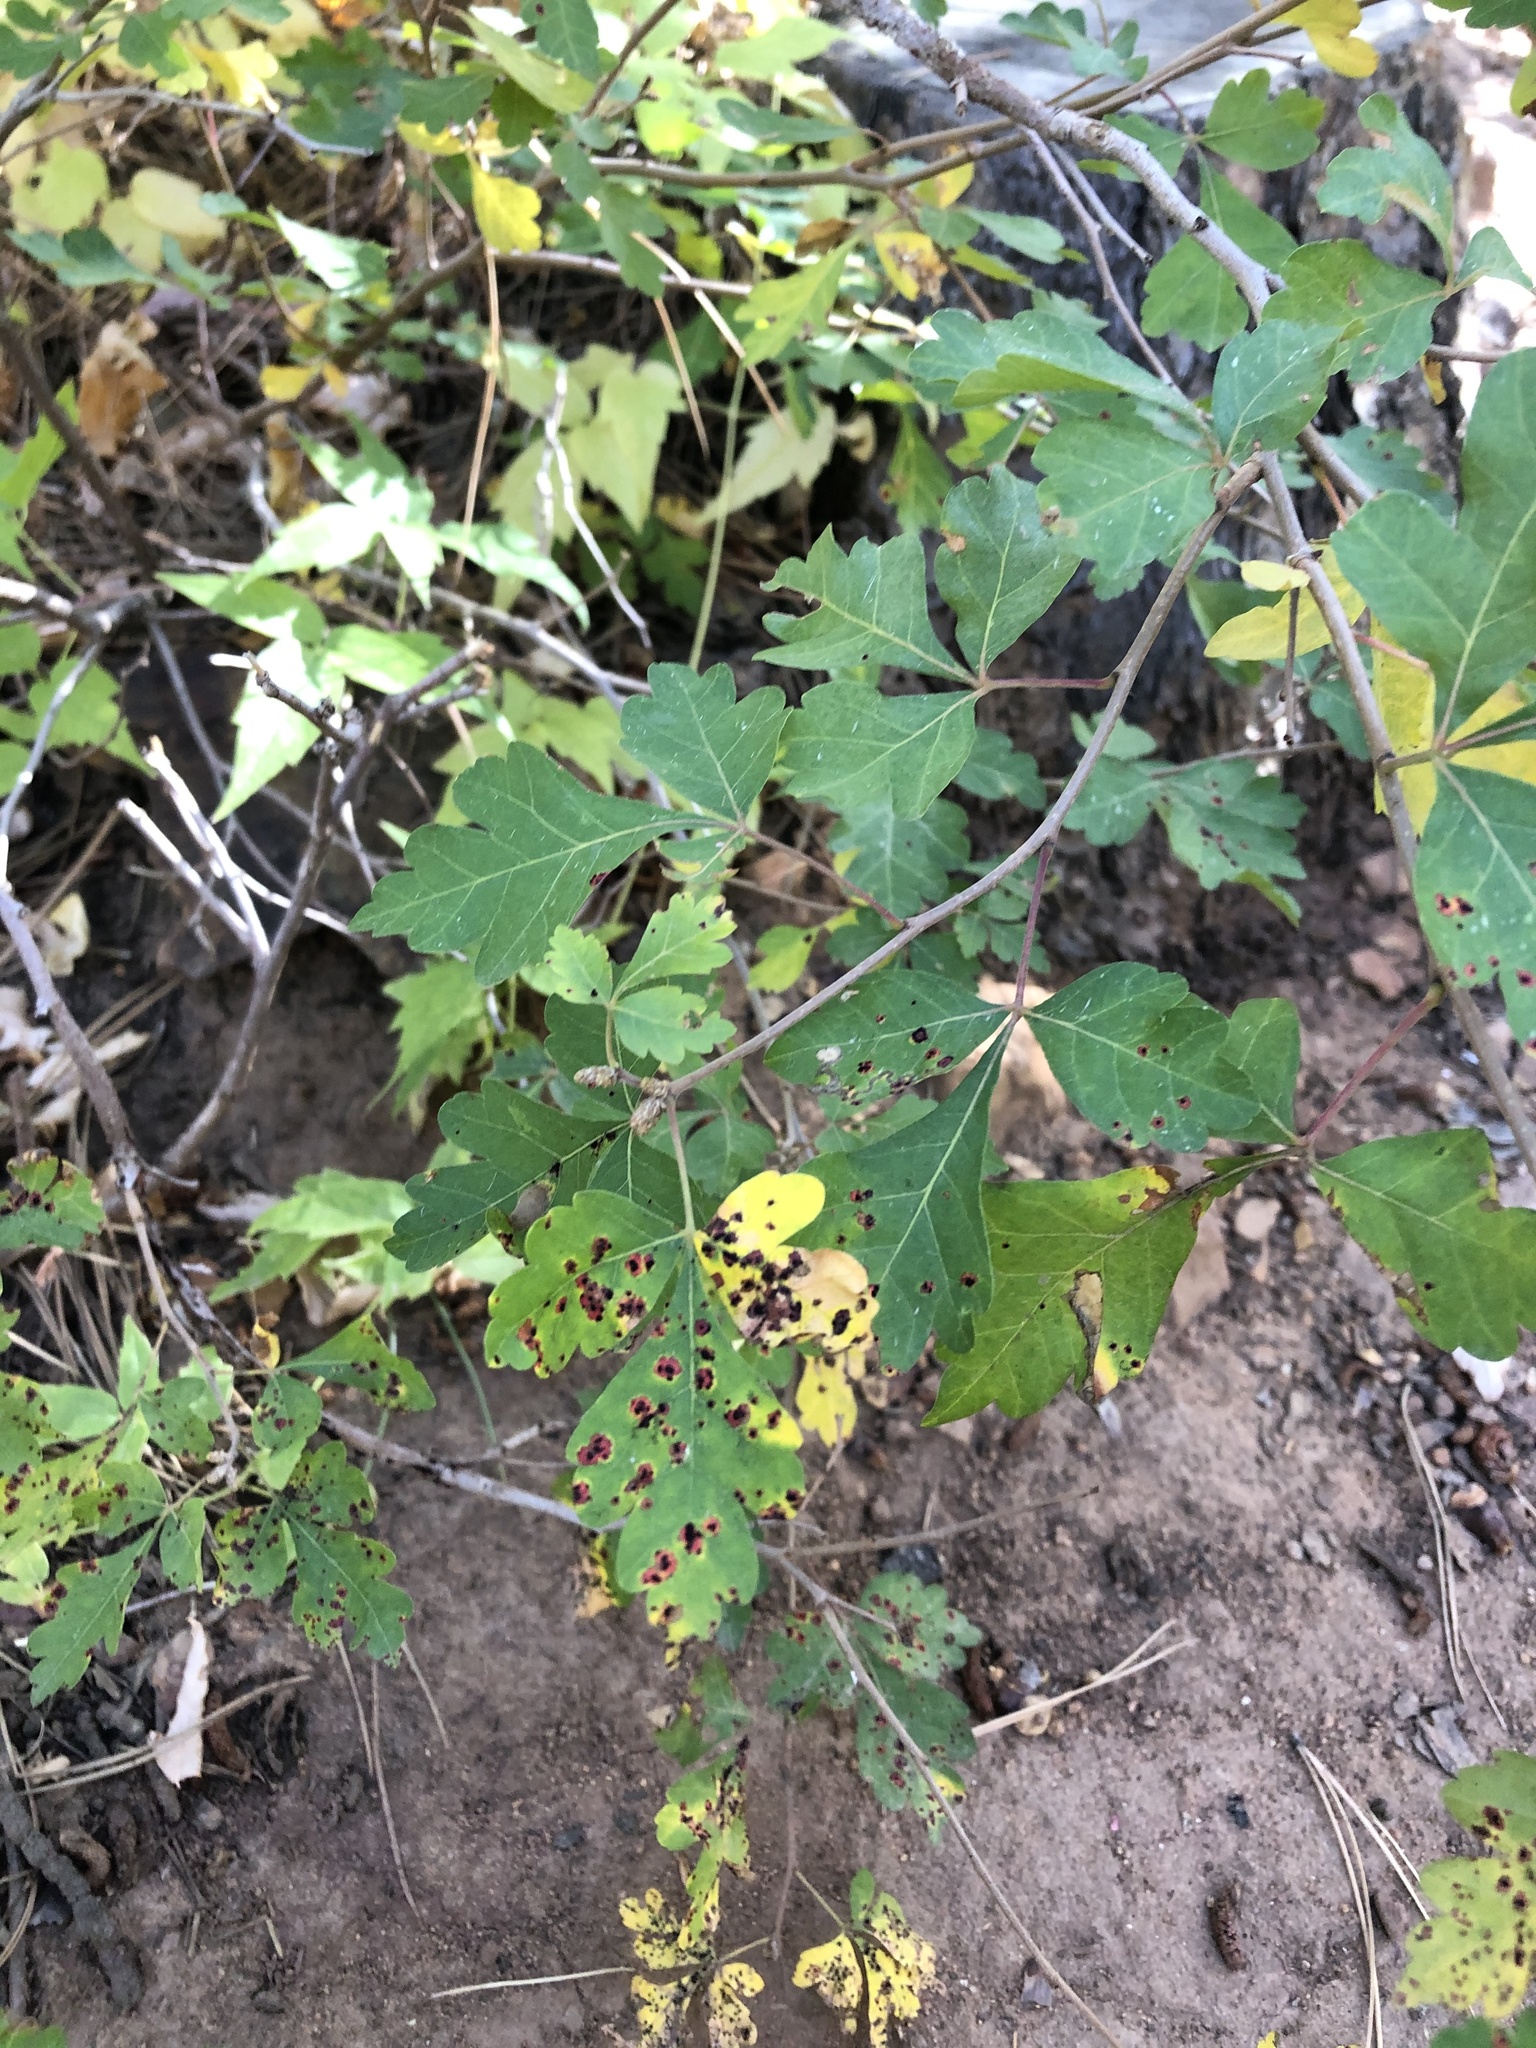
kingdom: Plantae
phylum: Tracheophyta
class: Magnoliopsida
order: Sapindales
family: Anacardiaceae
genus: Rhus
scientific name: Rhus trilobata
